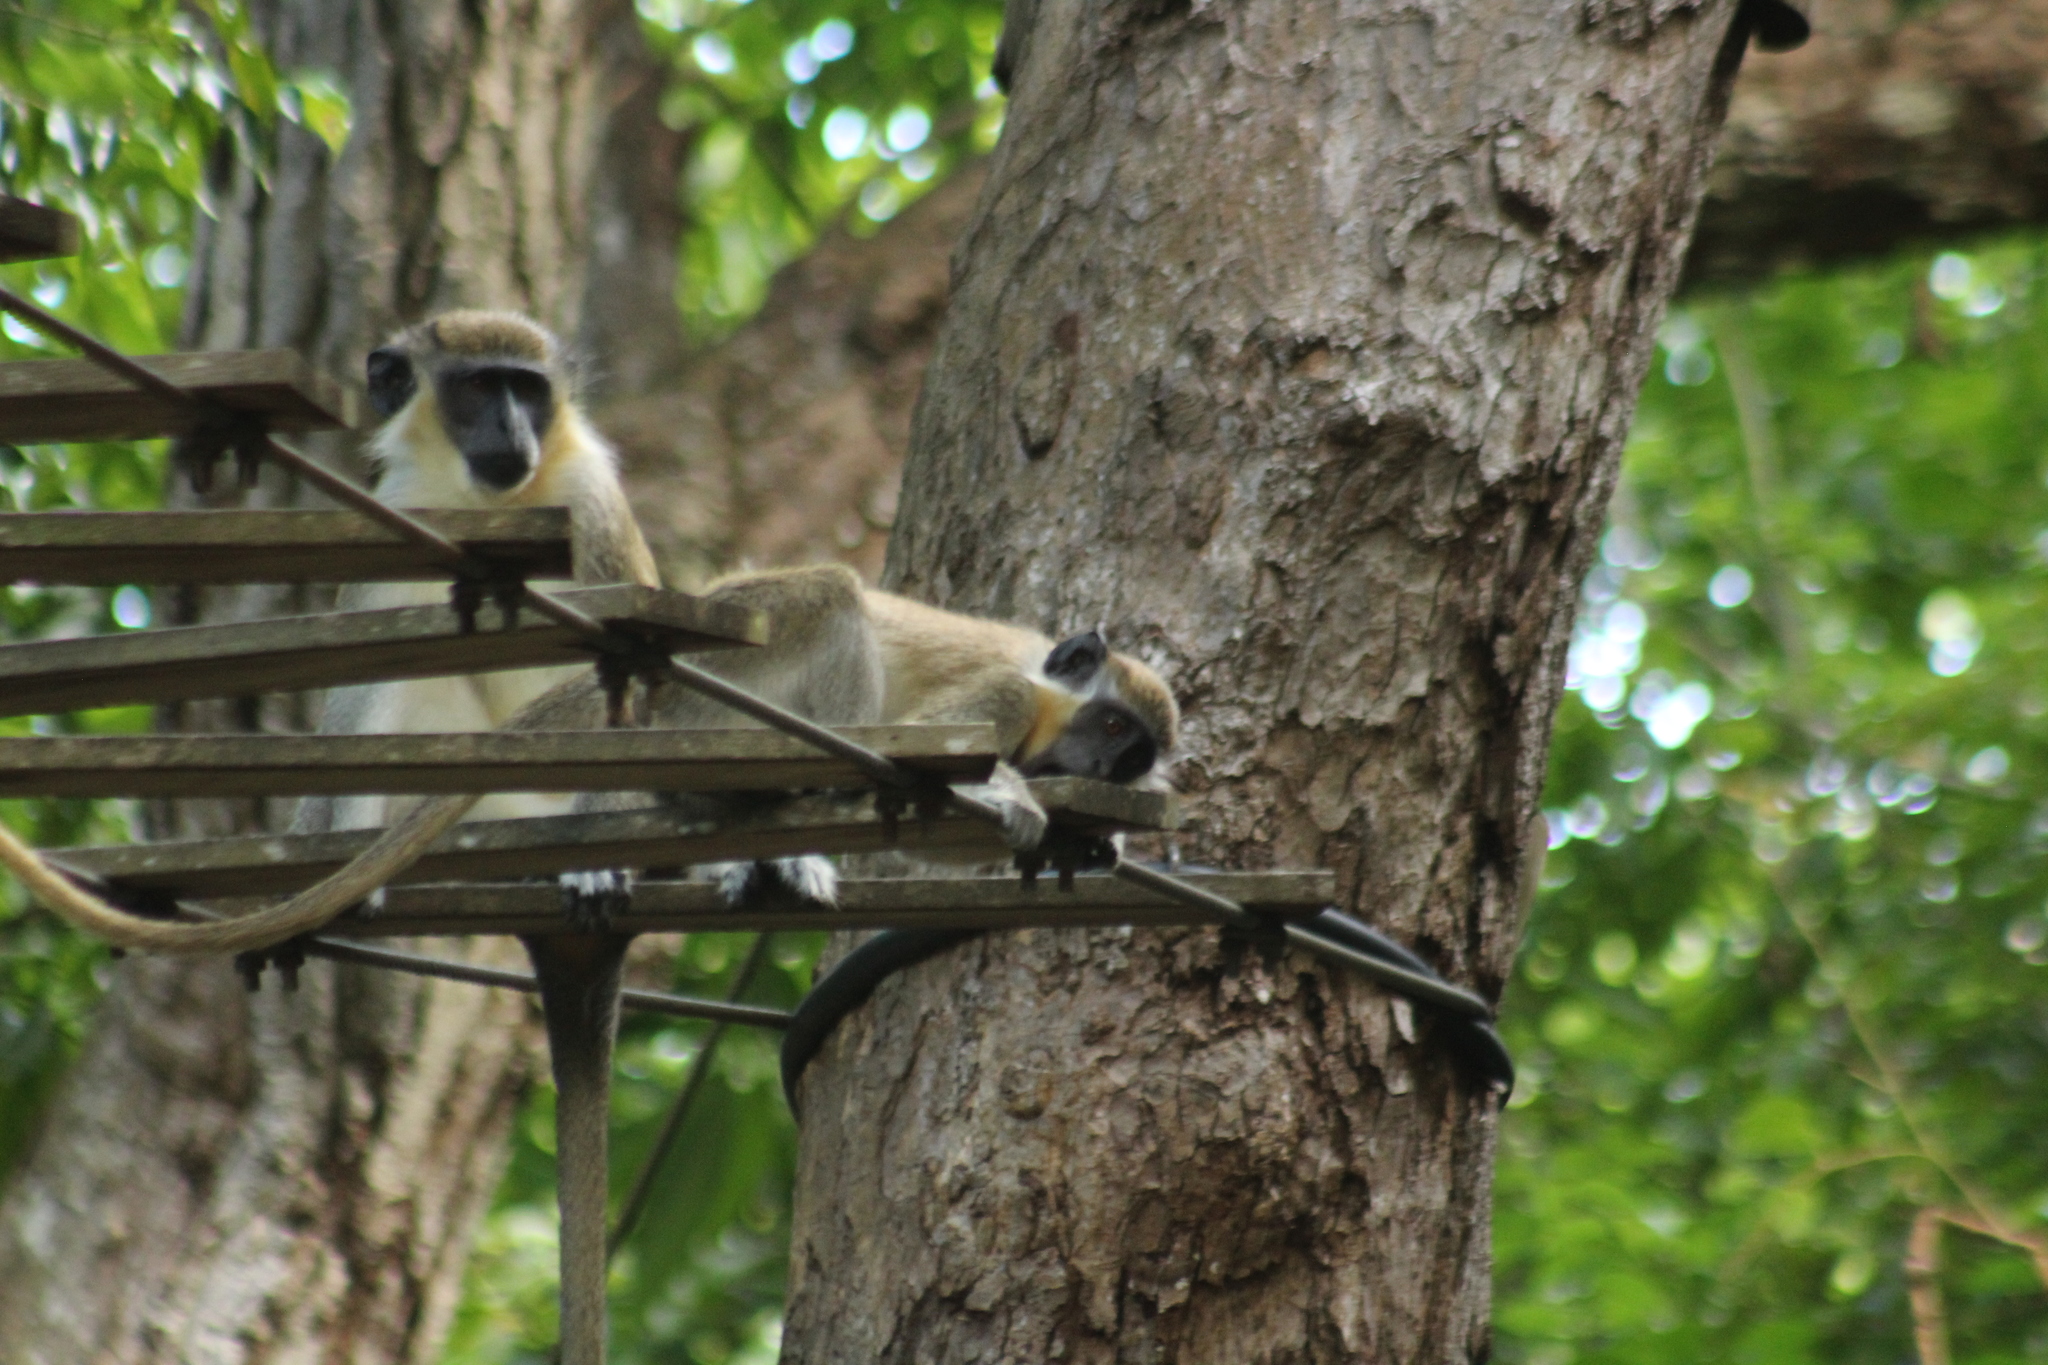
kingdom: Animalia
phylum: Chordata
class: Mammalia
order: Primates
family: Cercopithecidae
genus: Chlorocebus
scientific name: Chlorocebus sabaeus
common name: Green monkey
